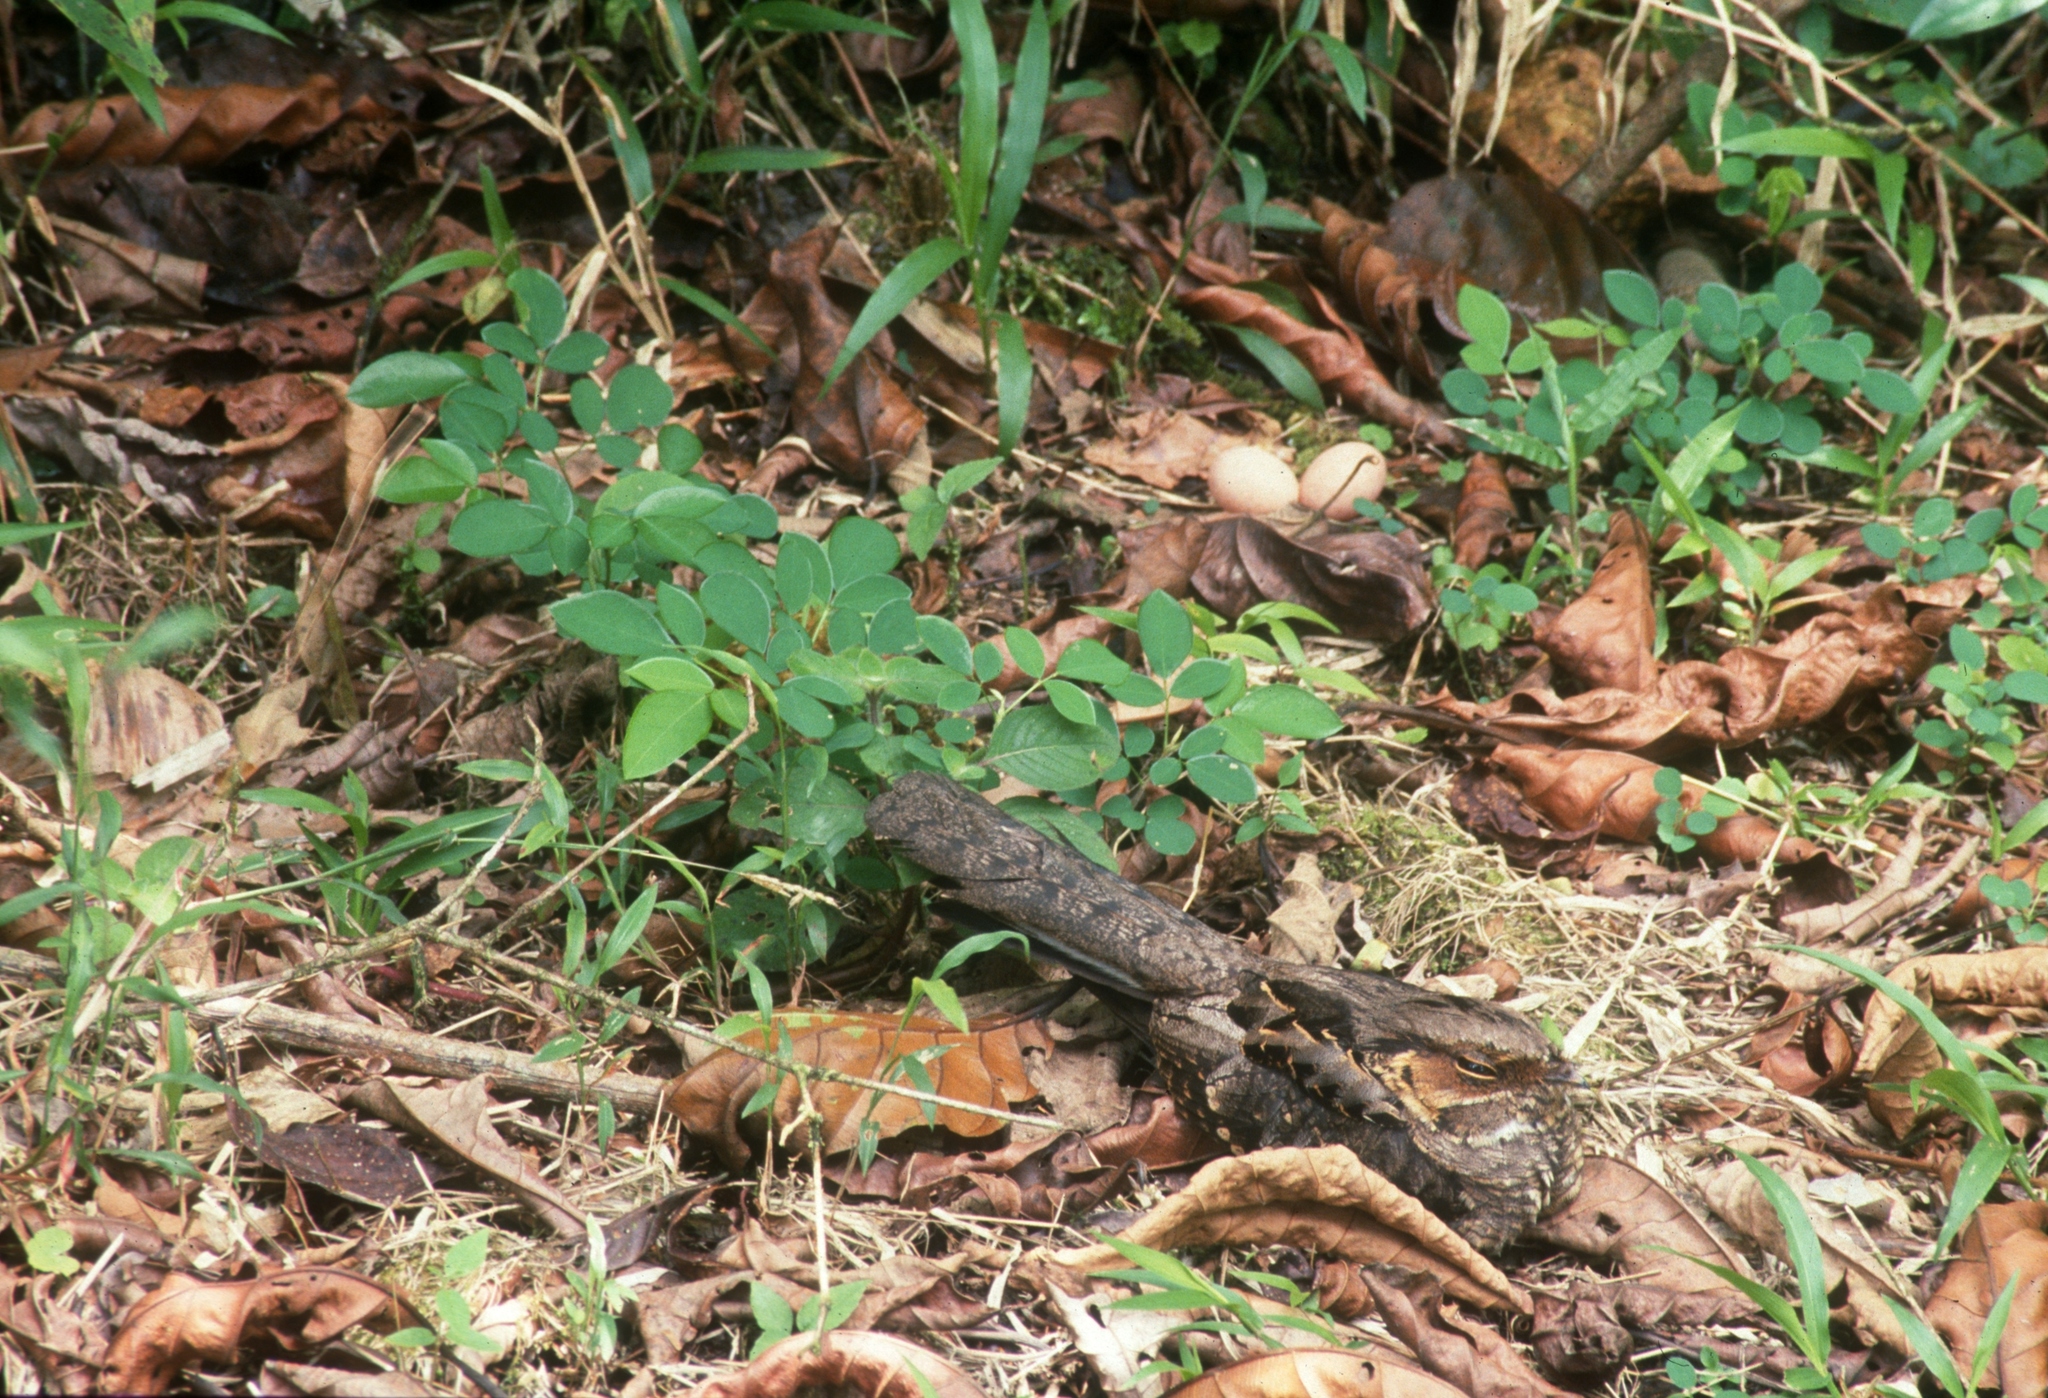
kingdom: Animalia
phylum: Chordata
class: Aves
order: Caprimulgiformes
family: Caprimulgidae
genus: Nyctidromus
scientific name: Nyctidromus albicollis
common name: Pauraque
